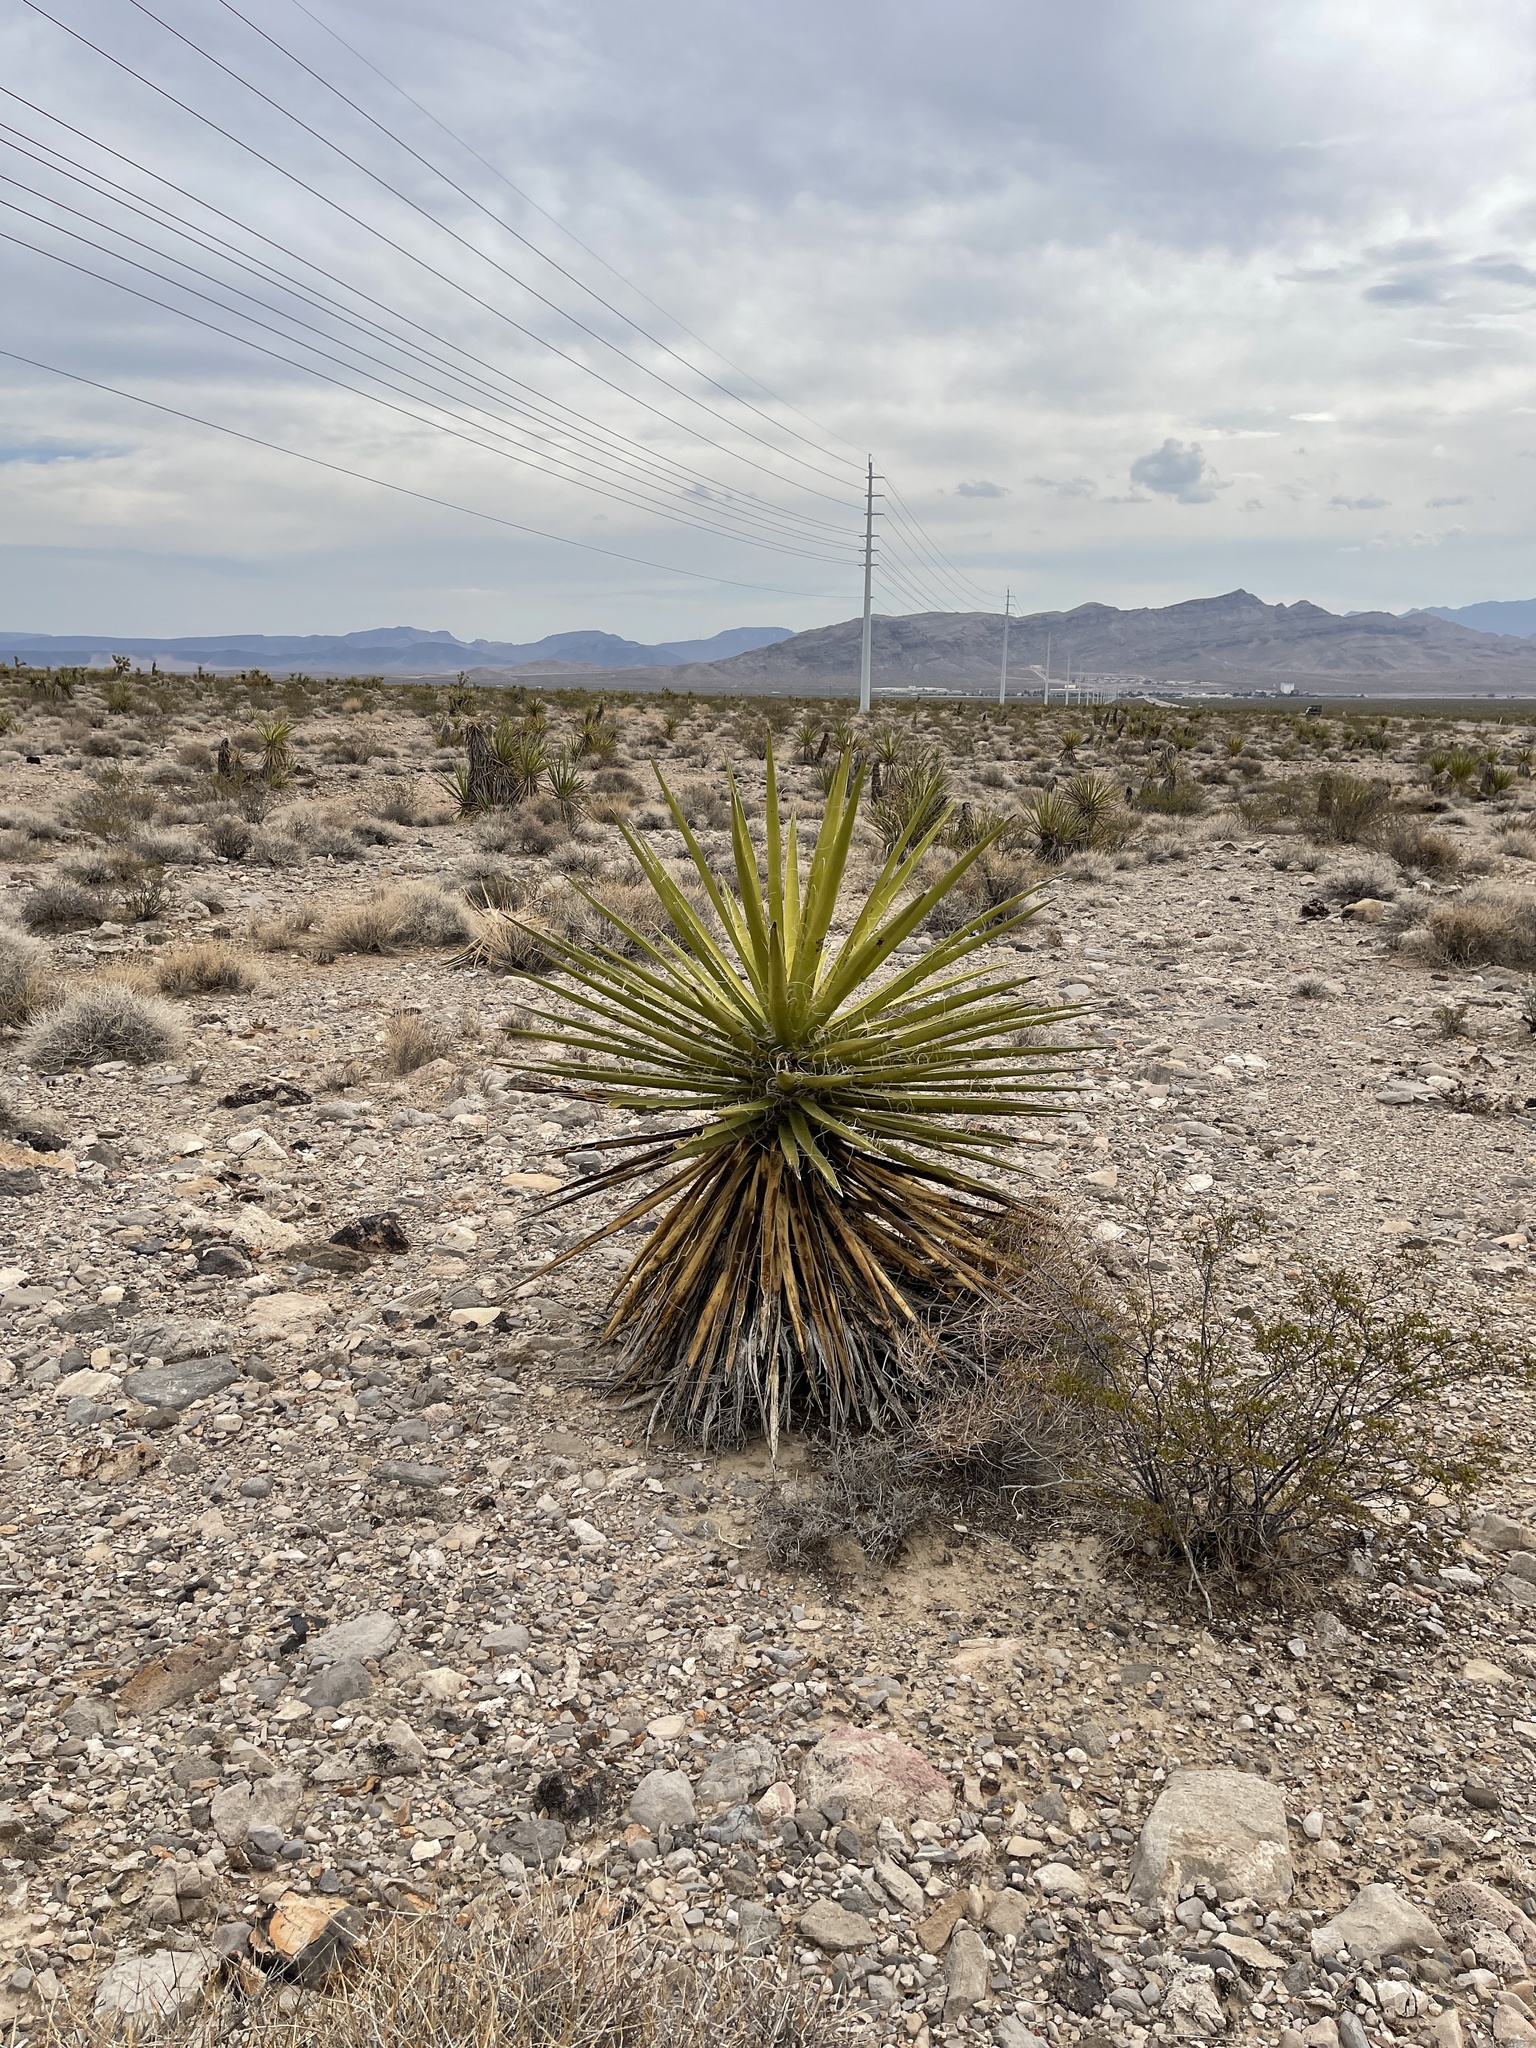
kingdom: Plantae
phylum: Tracheophyta
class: Liliopsida
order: Asparagales
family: Asparagaceae
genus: Yucca
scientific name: Yucca schidigera
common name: Mojave yucca
